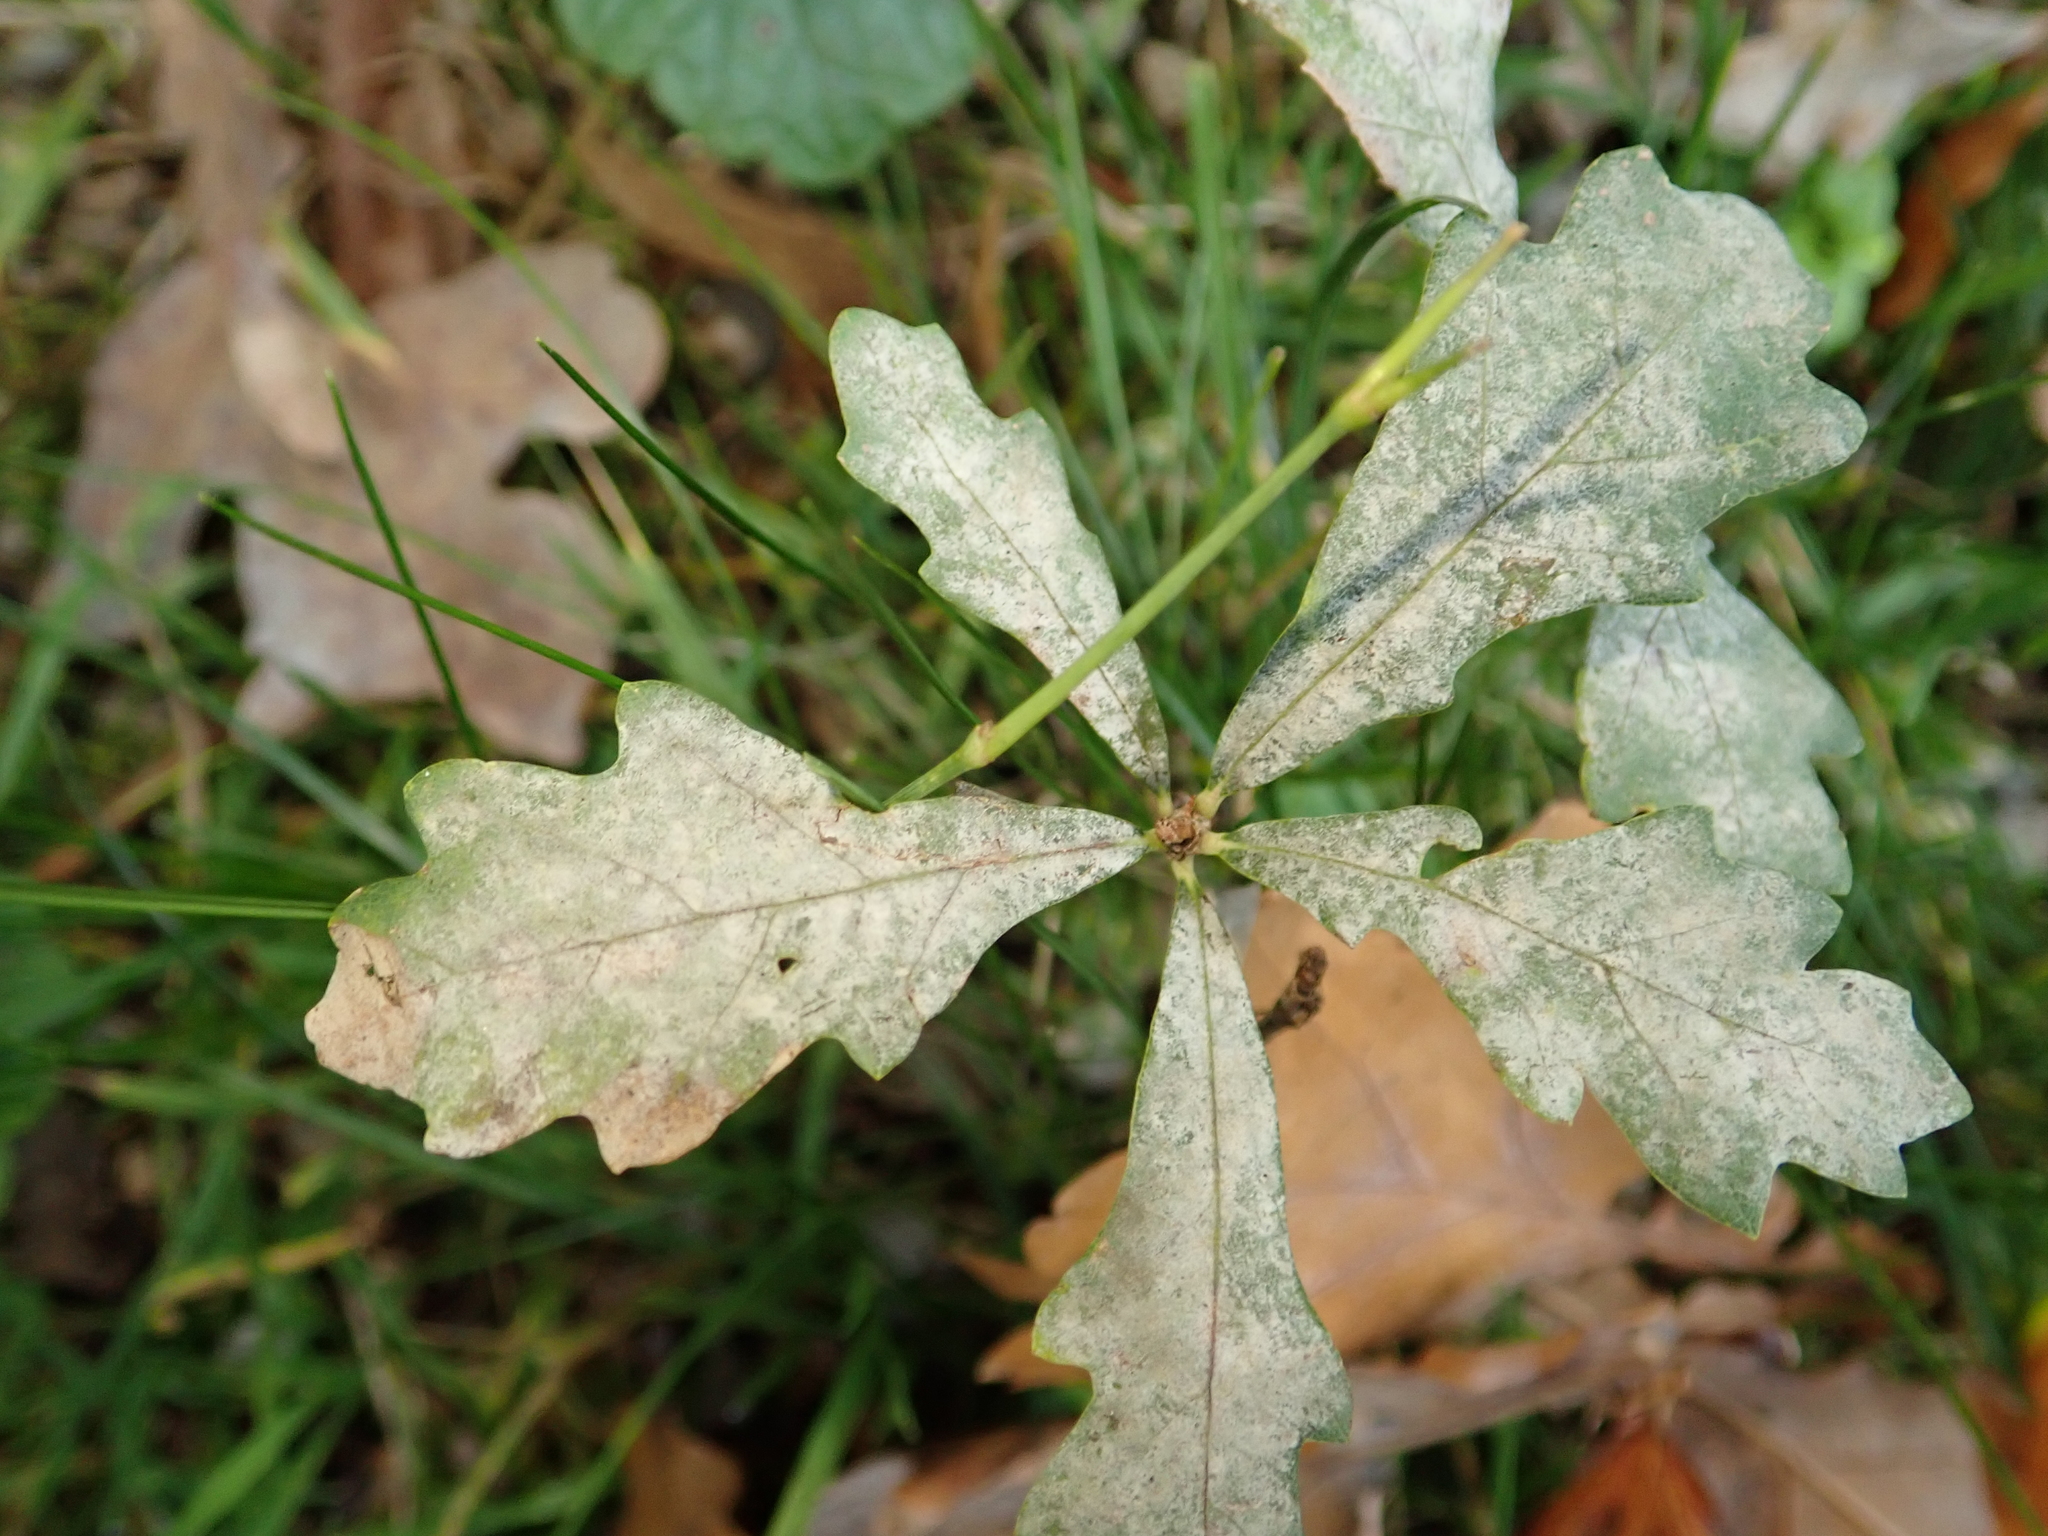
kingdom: Fungi
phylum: Ascomycota
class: Leotiomycetes
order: Helotiales
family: Erysiphaceae
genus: Erysiphe
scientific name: Erysiphe
